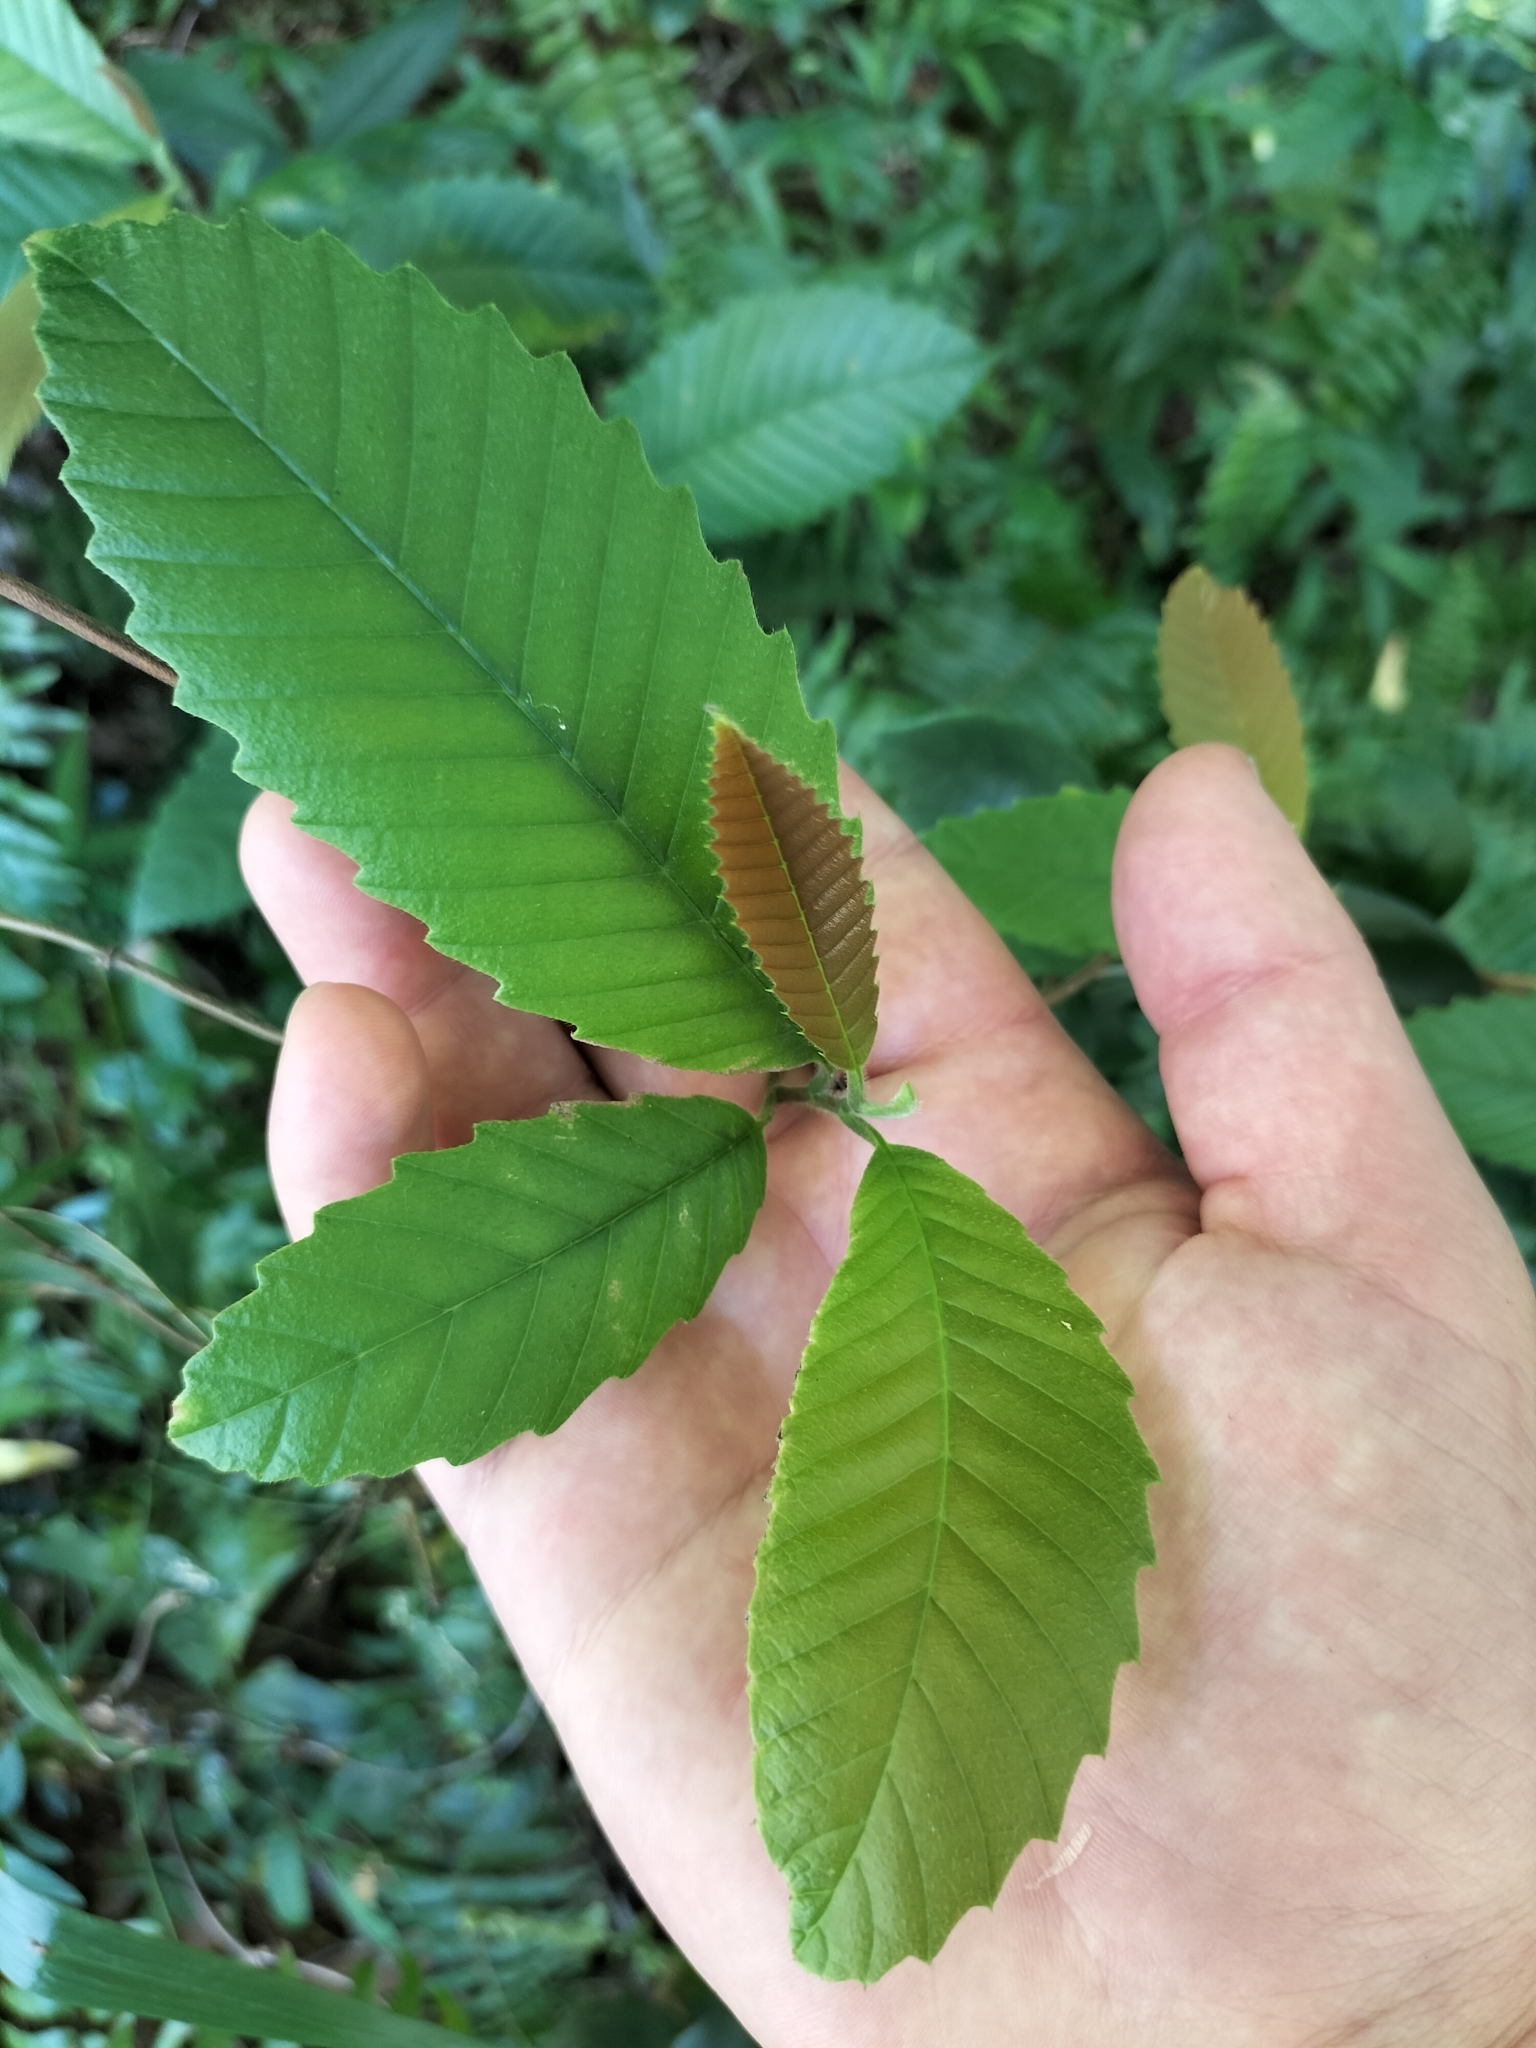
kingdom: Plantae
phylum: Tracheophyta
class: Magnoliopsida
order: Dilleniales
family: Dilleniaceae
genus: Tetracera
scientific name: Tetracera nordtiana
